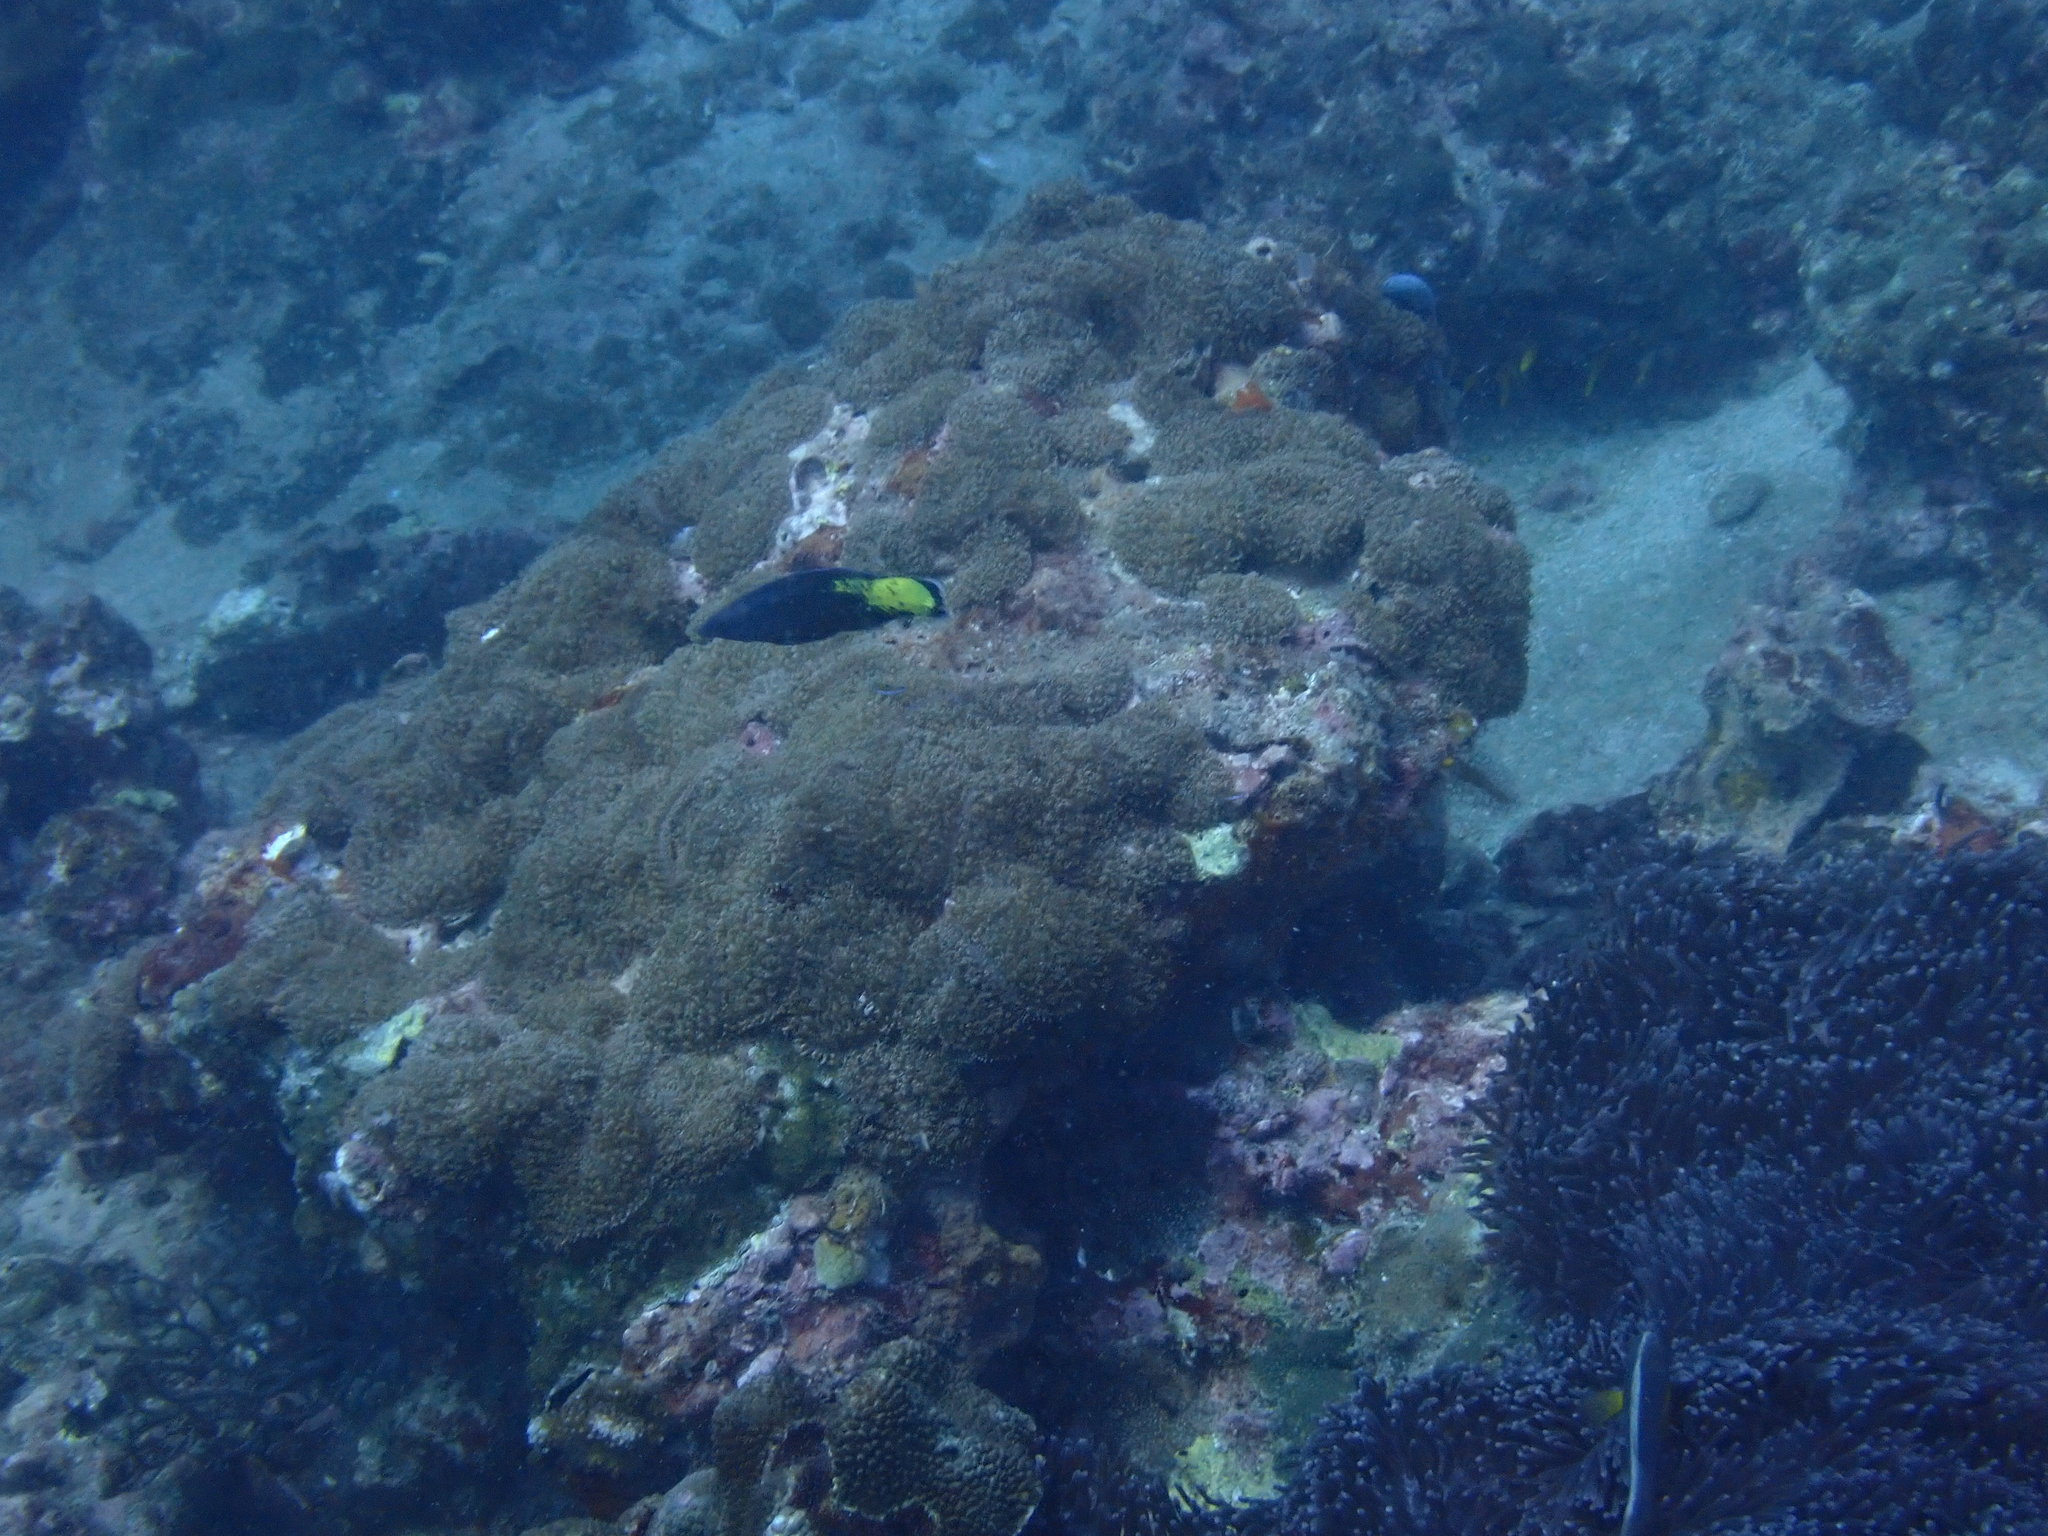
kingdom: Animalia
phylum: Chordata
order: Perciformes
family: Labridae
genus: Labroides
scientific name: Labroides bicolor
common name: Bicolor cleaner wrasse
